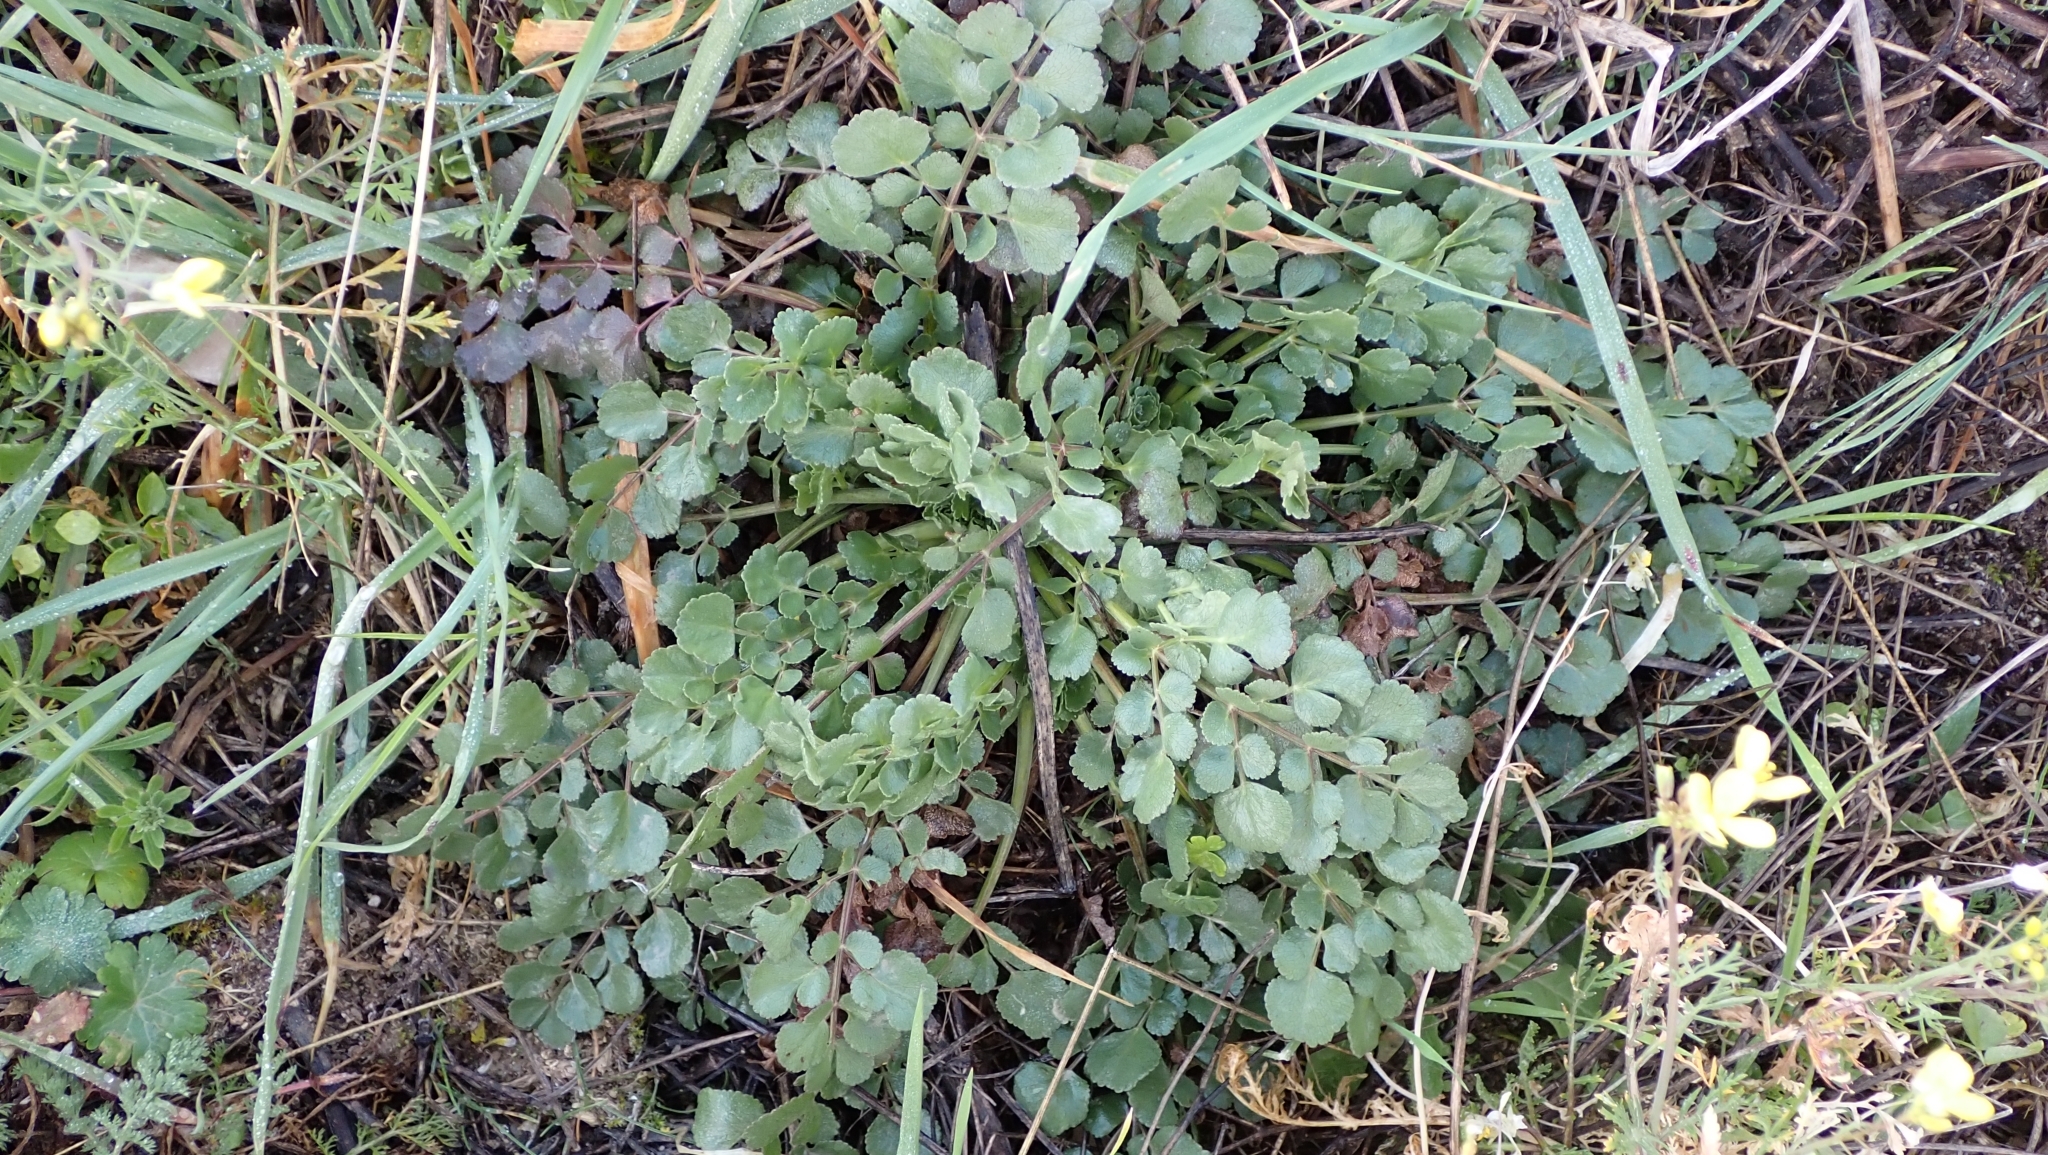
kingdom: Plantae
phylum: Tracheophyta
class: Magnoliopsida
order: Apiales
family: Apiaceae
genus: Pimpinella
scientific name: Pimpinella villosa
